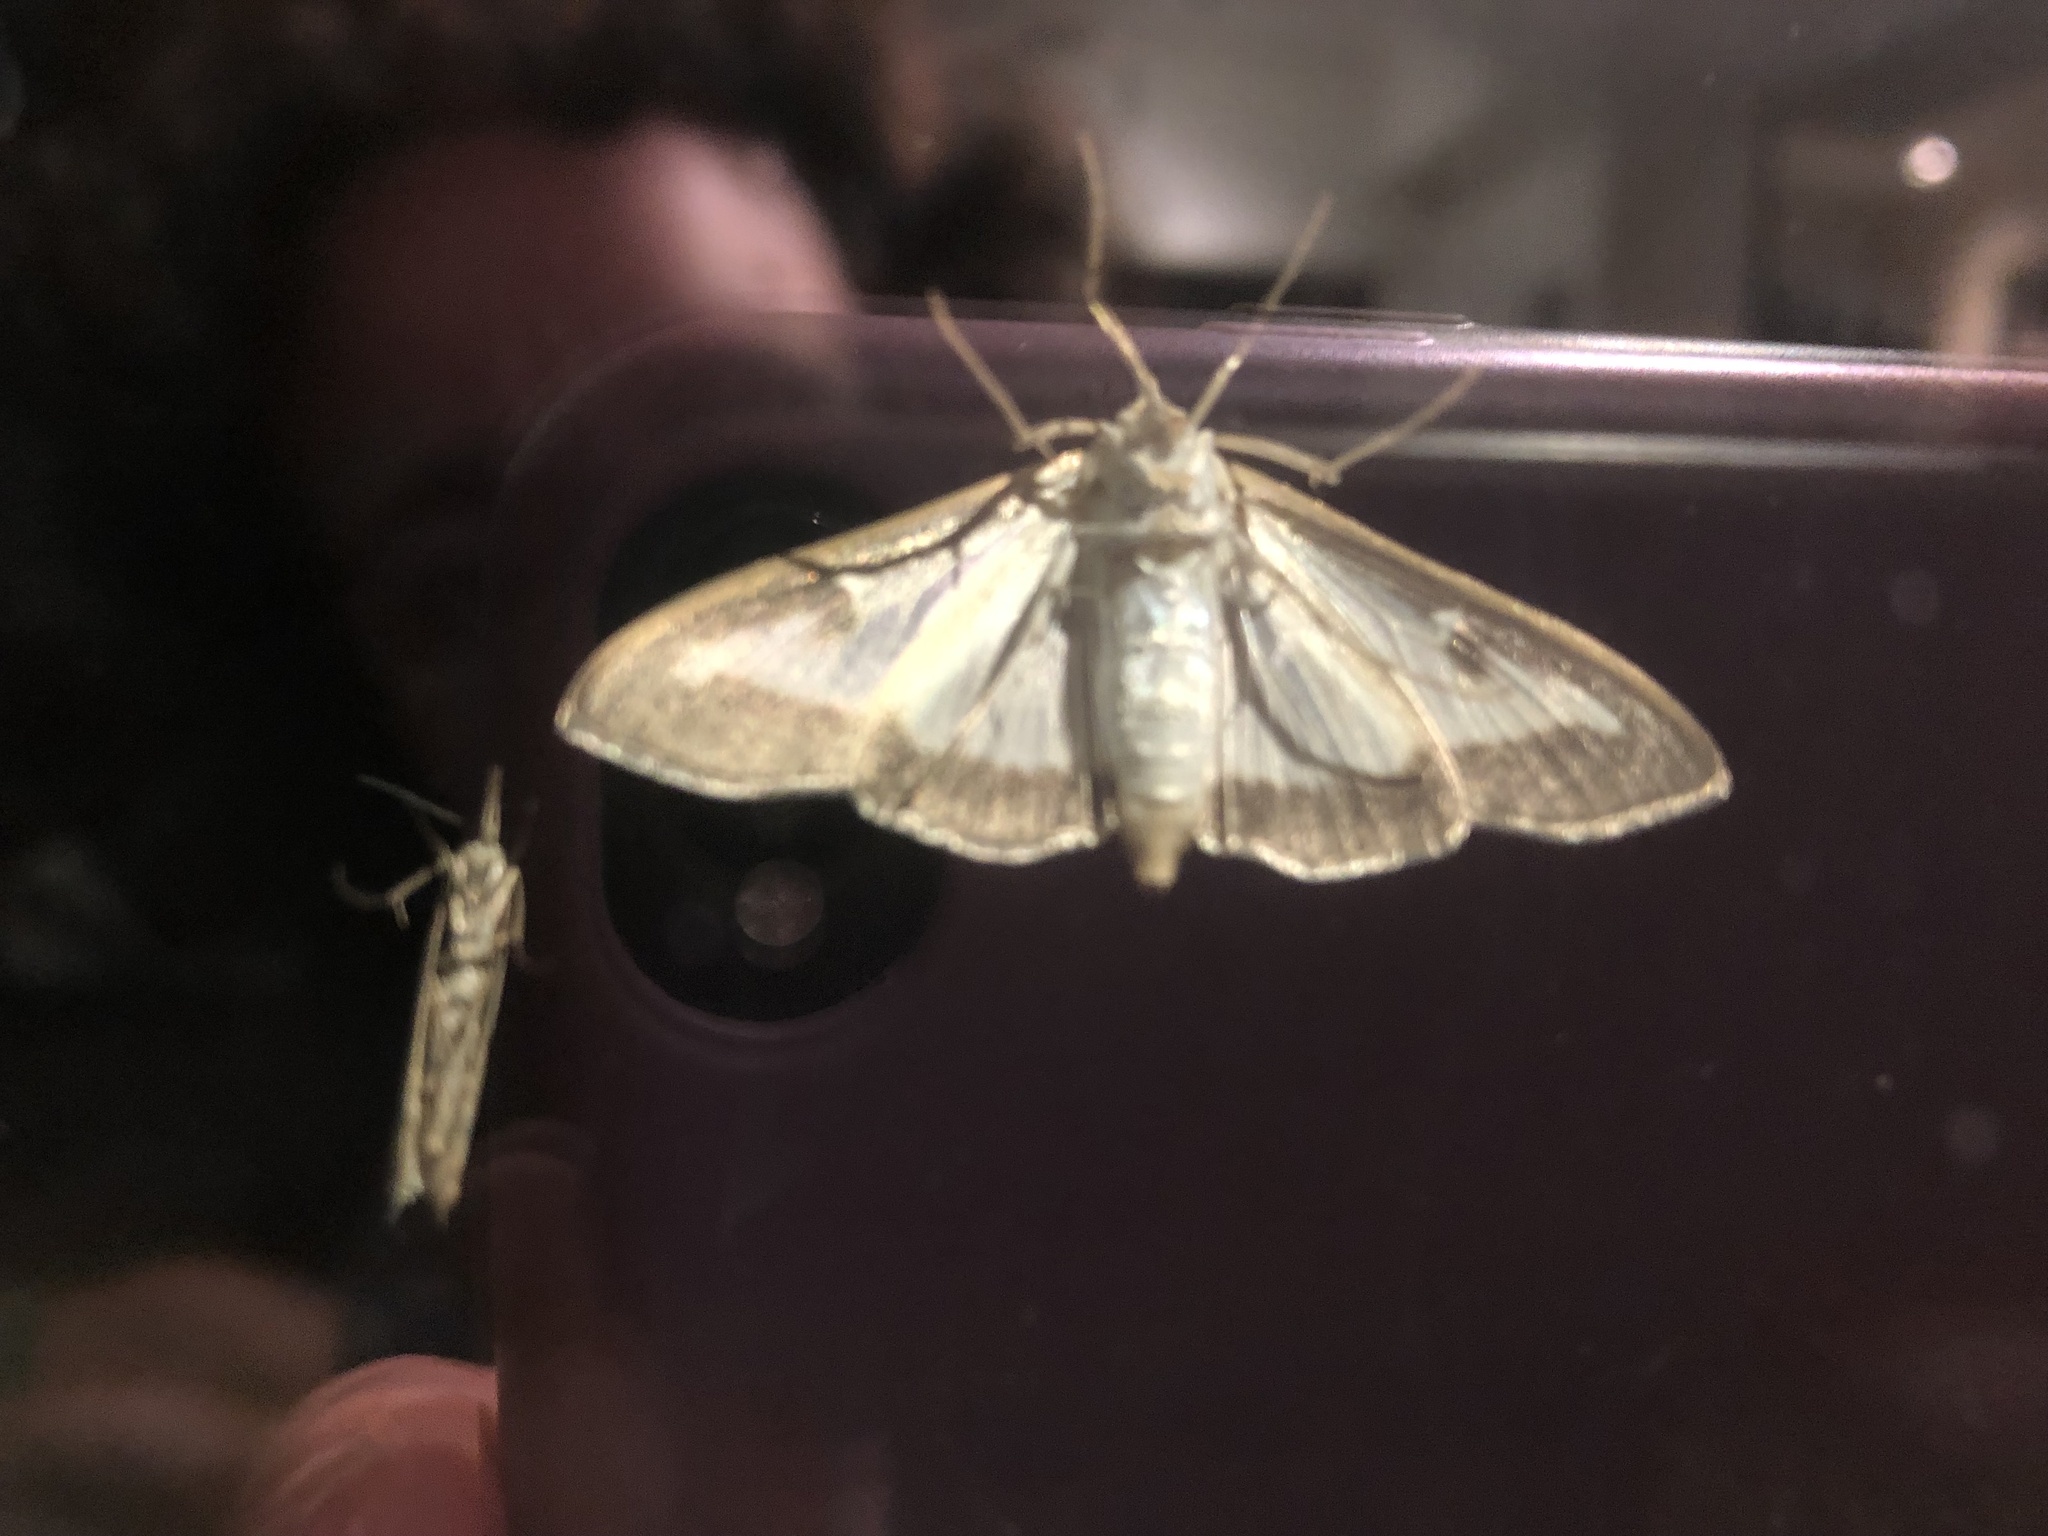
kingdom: Animalia
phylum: Arthropoda
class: Insecta
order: Lepidoptera
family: Crambidae
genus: Cydalima
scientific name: Cydalima perspectalis
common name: Box tree moth
